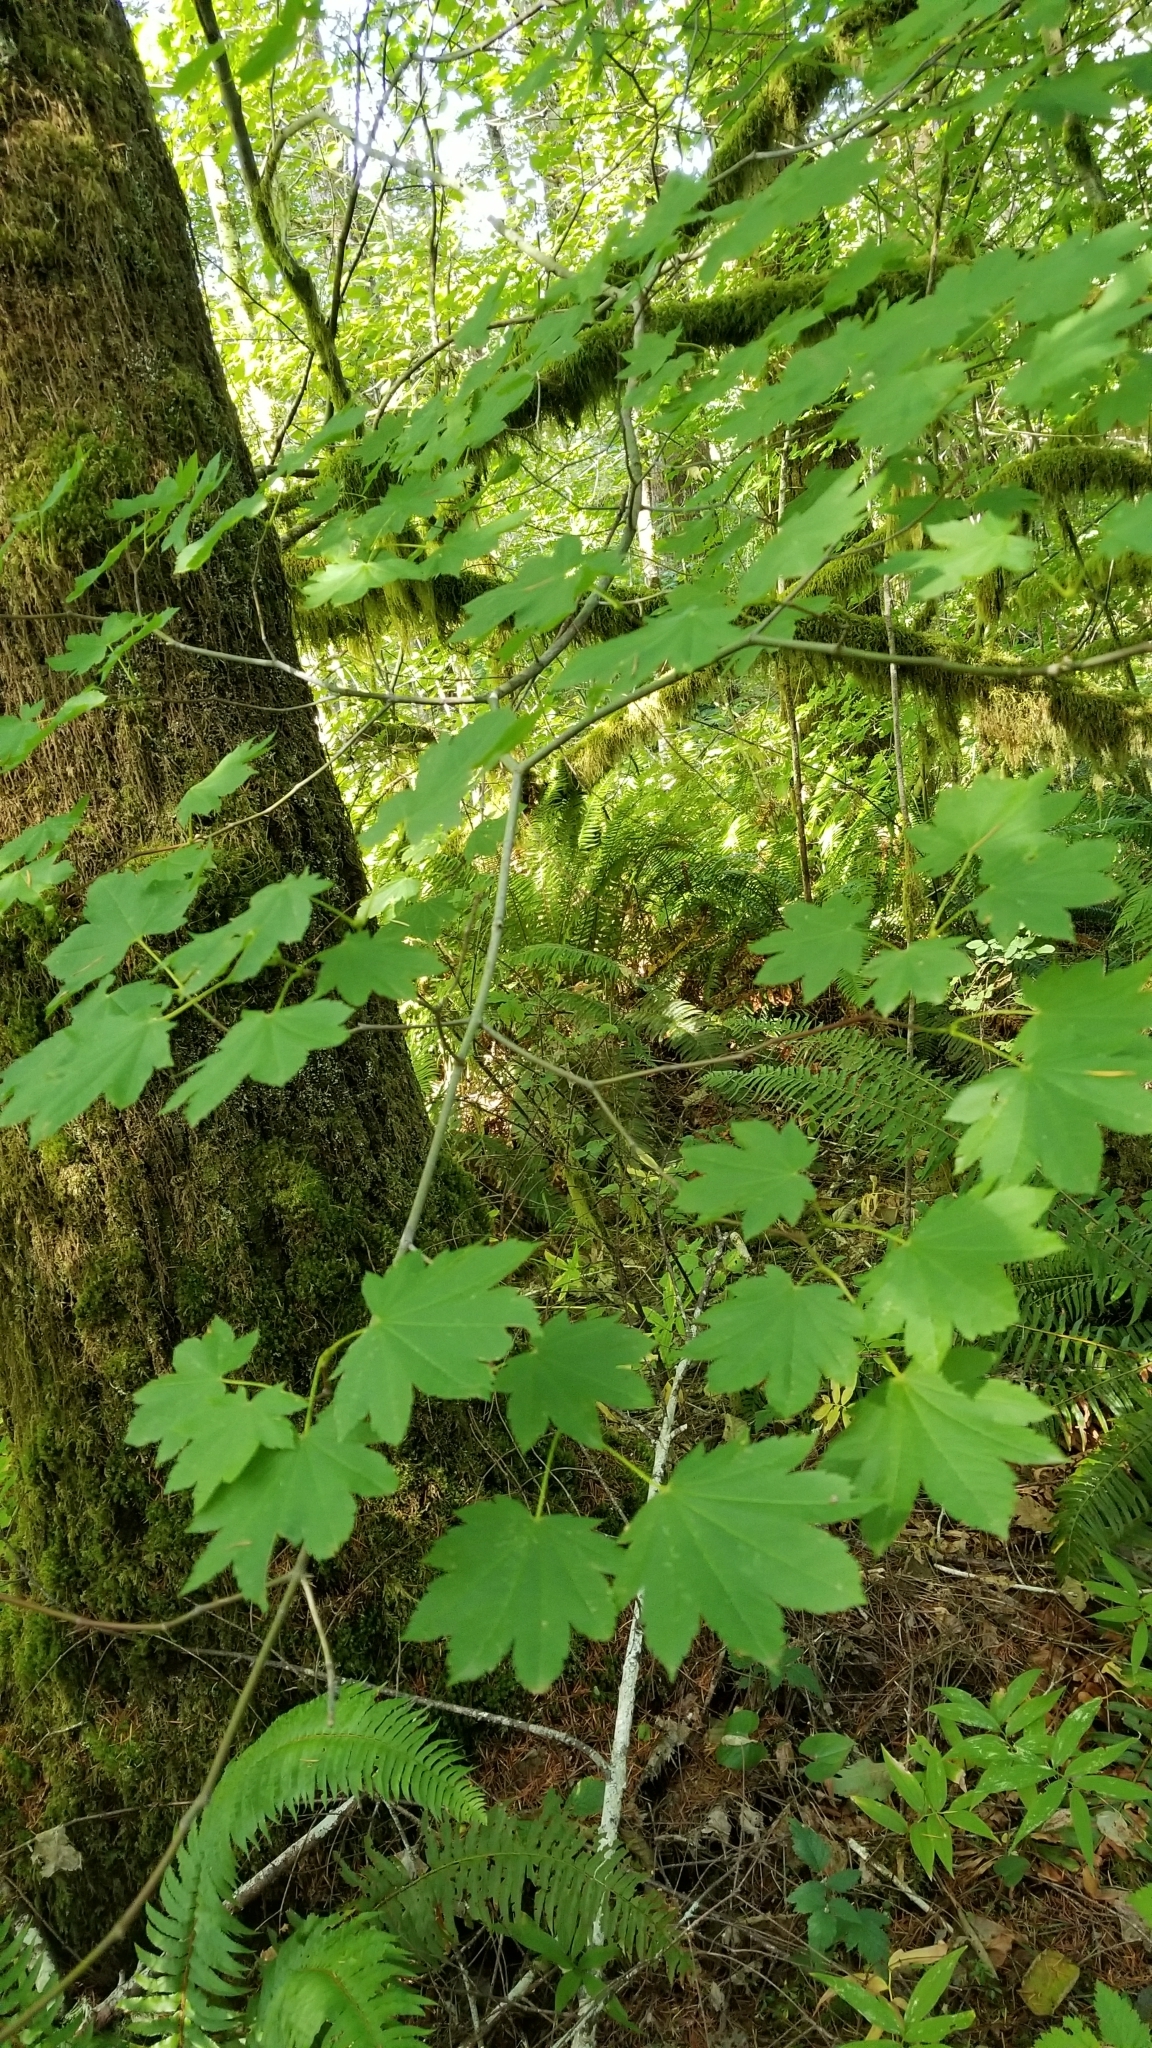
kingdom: Plantae
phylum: Tracheophyta
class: Magnoliopsida
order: Sapindales
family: Sapindaceae
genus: Acer
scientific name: Acer circinatum
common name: Vine maple
